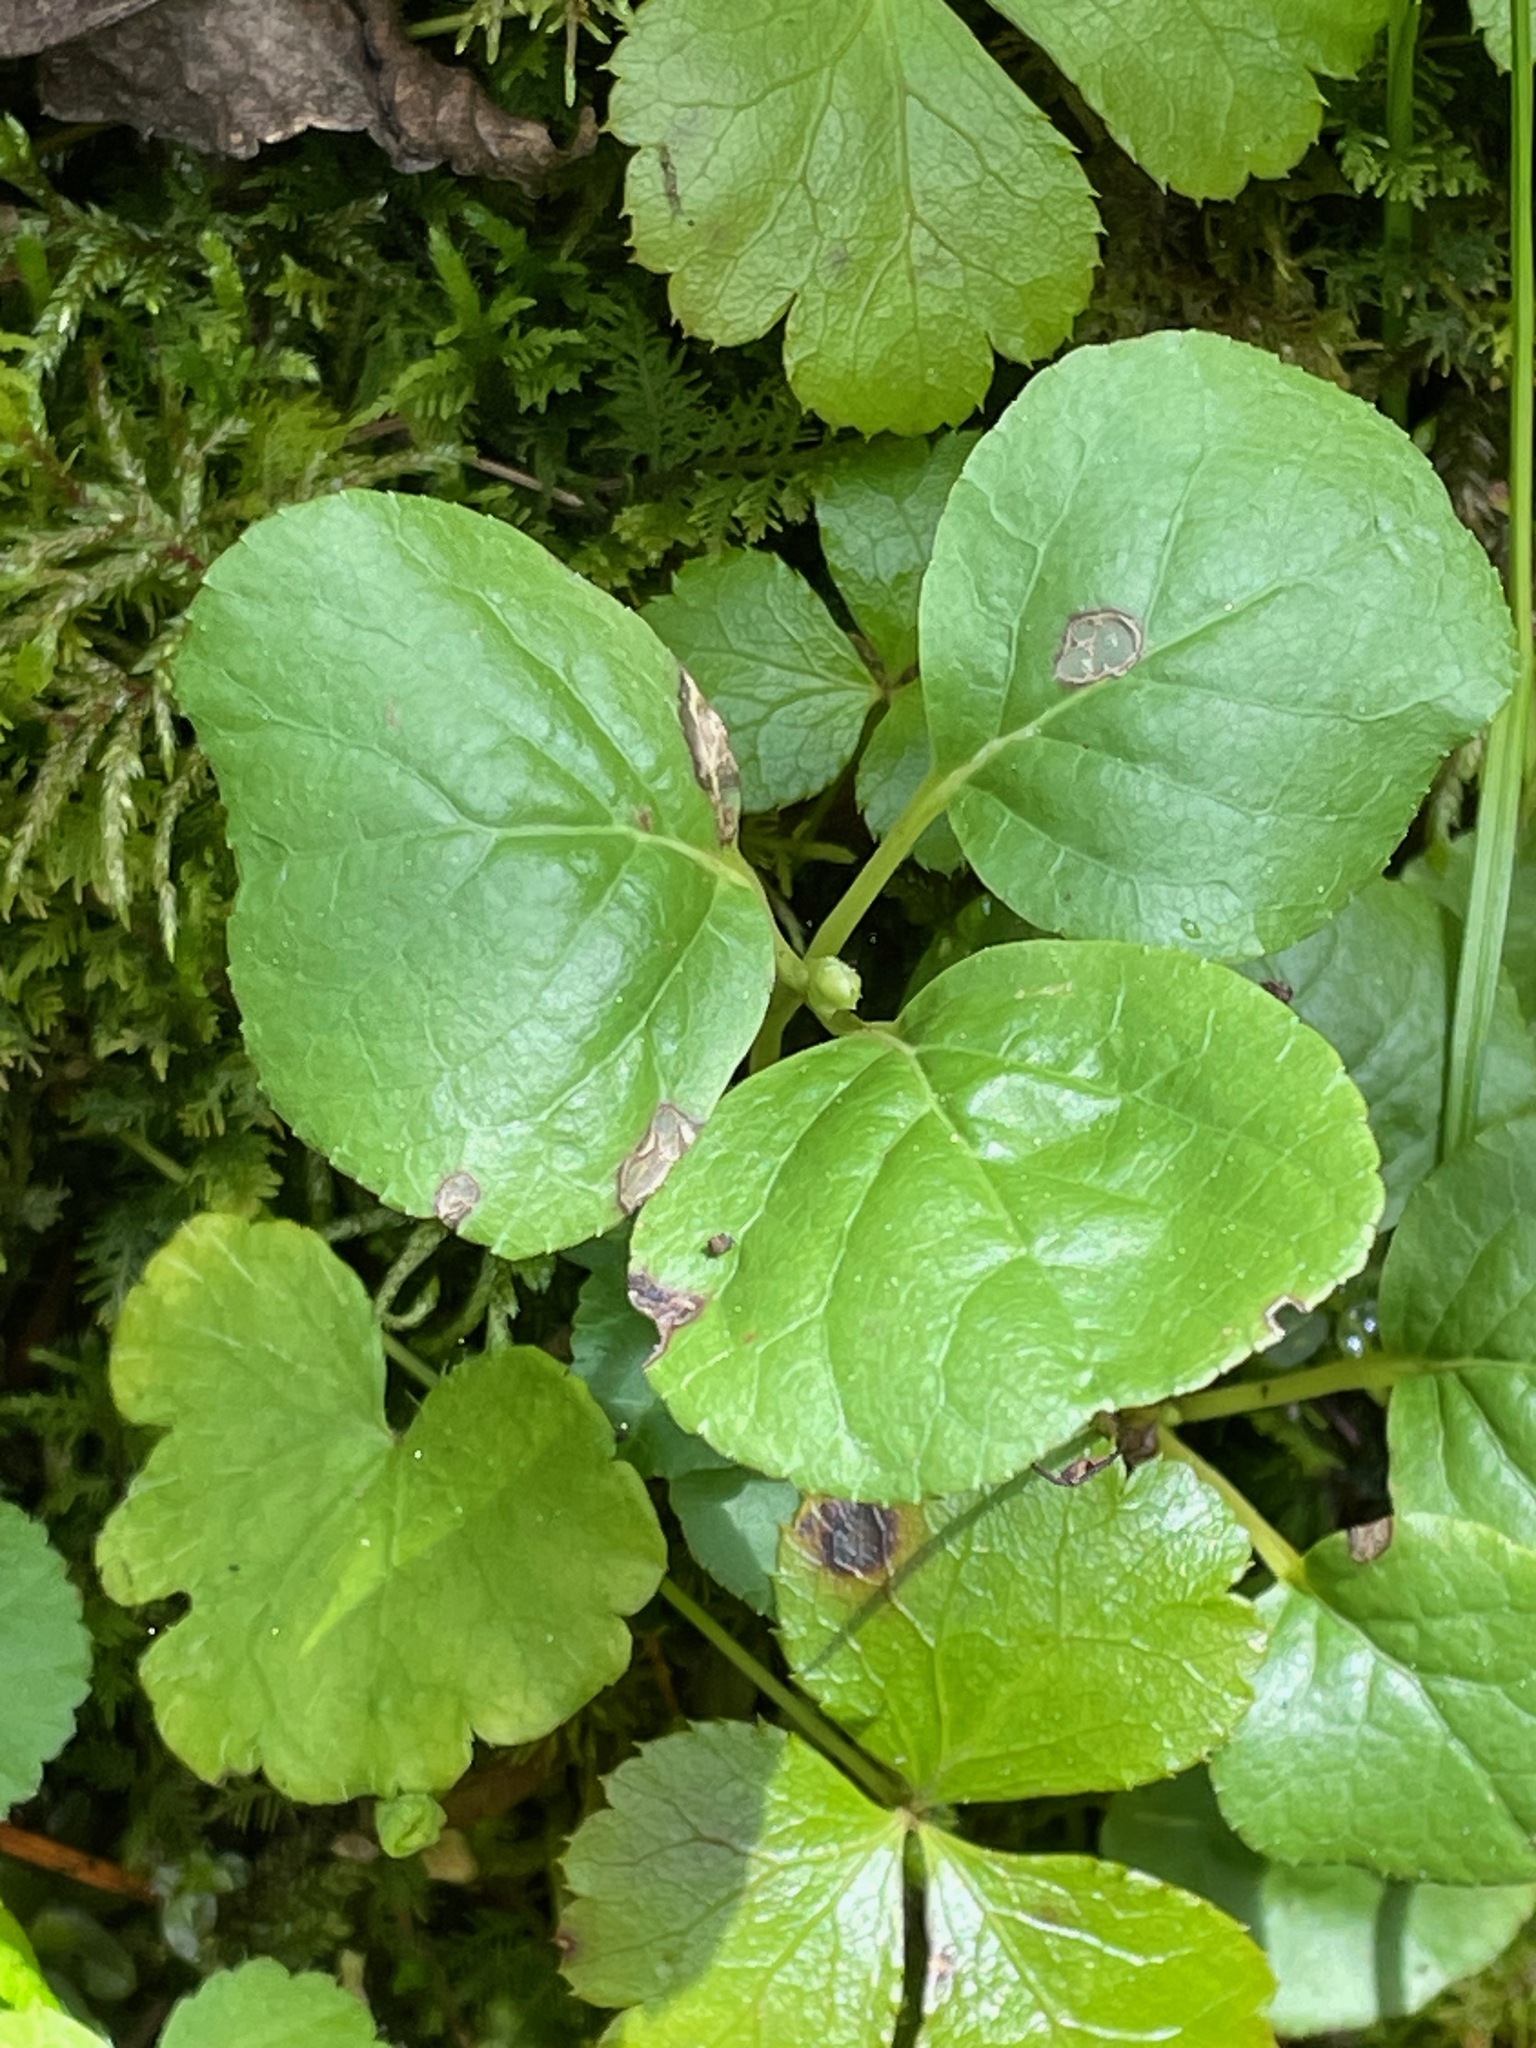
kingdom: Plantae
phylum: Tracheophyta
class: Magnoliopsida
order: Ericales
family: Ericaceae
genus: Orthilia
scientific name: Orthilia secunda
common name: One-sided orthilia
